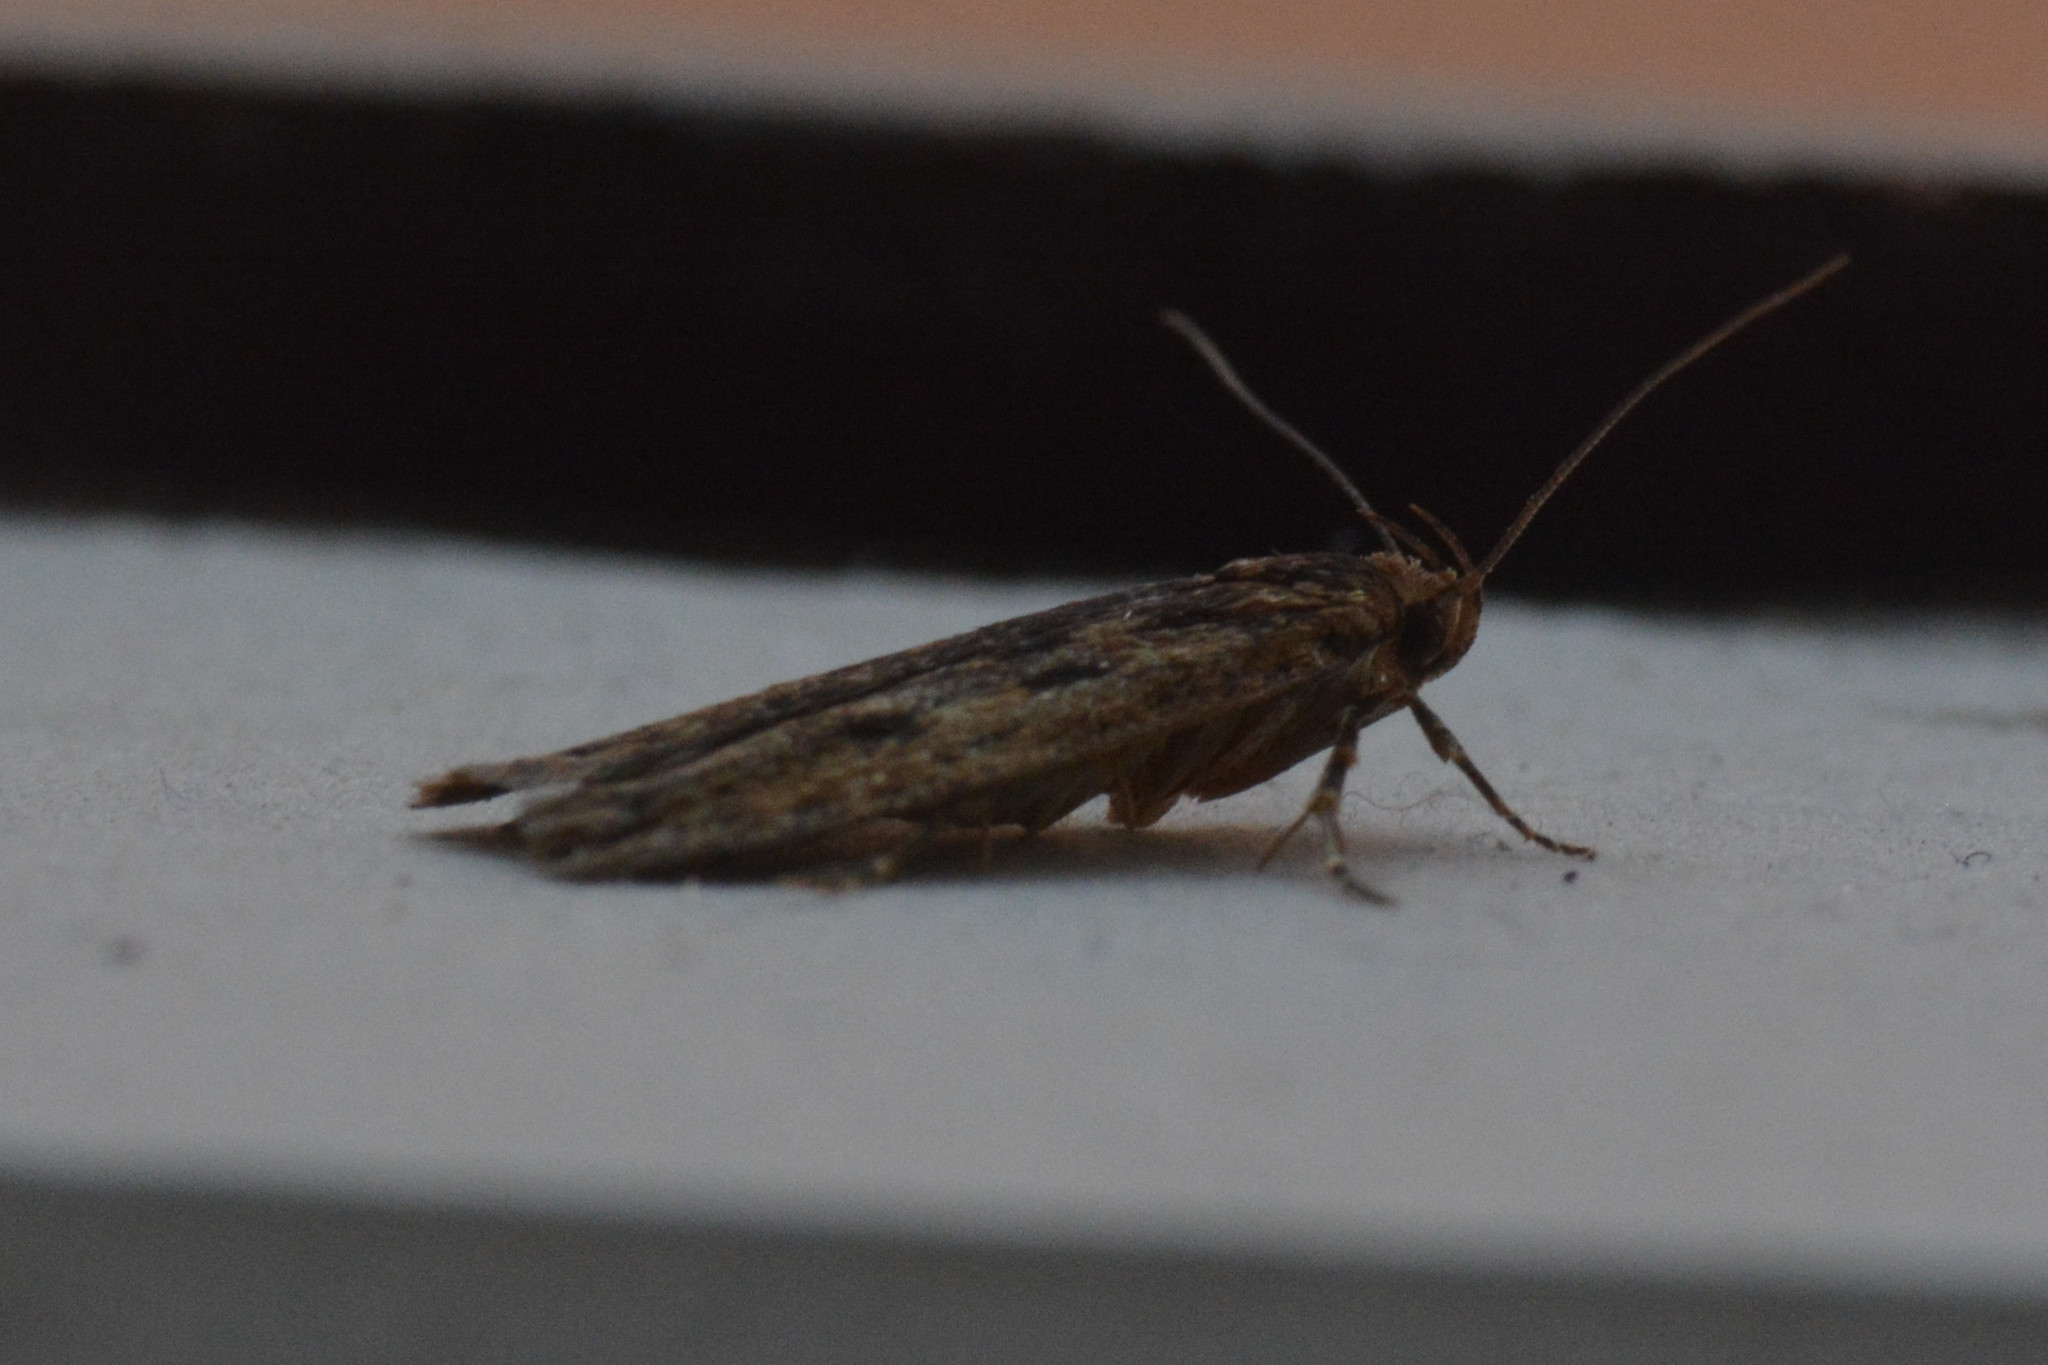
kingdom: Animalia
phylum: Arthropoda
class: Insecta
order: Lepidoptera
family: Oecophoridae
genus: Hofmannophila
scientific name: Hofmannophila pseudospretella
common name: Brown house moth
